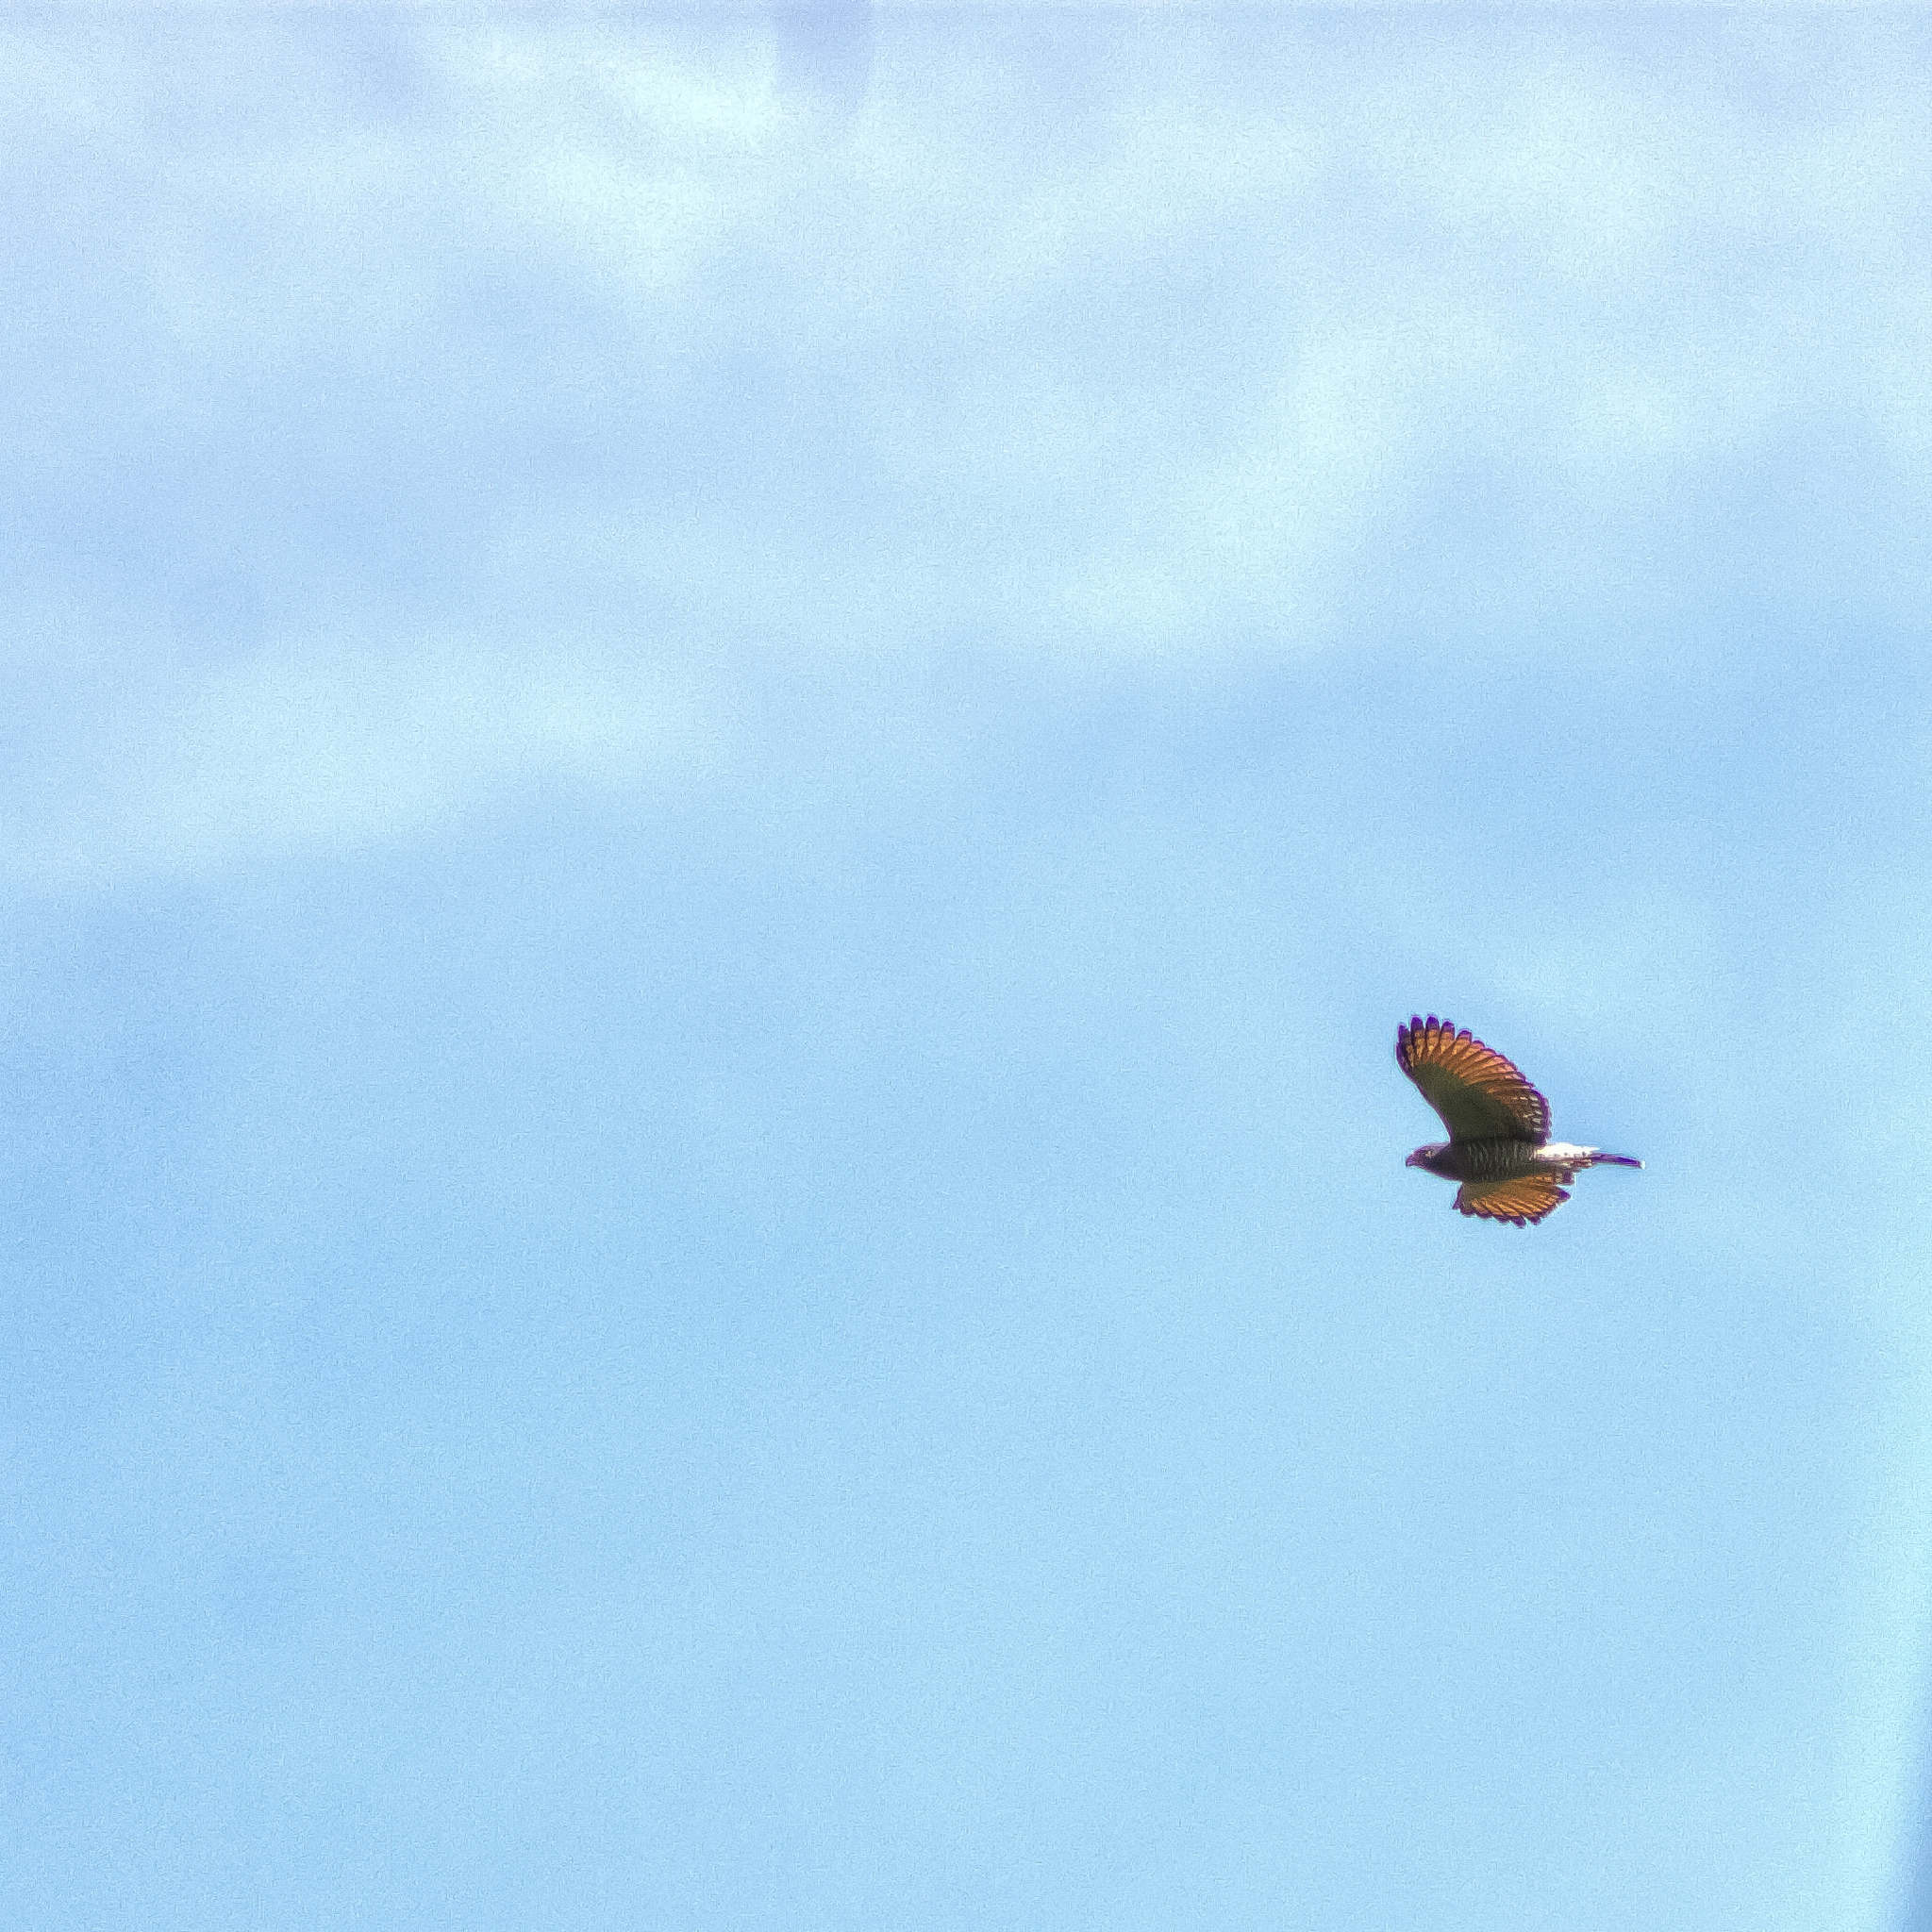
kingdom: Animalia
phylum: Chordata
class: Aves
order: Accipitriformes
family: Accipitridae
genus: Rupornis
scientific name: Rupornis magnirostris
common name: Roadside hawk
